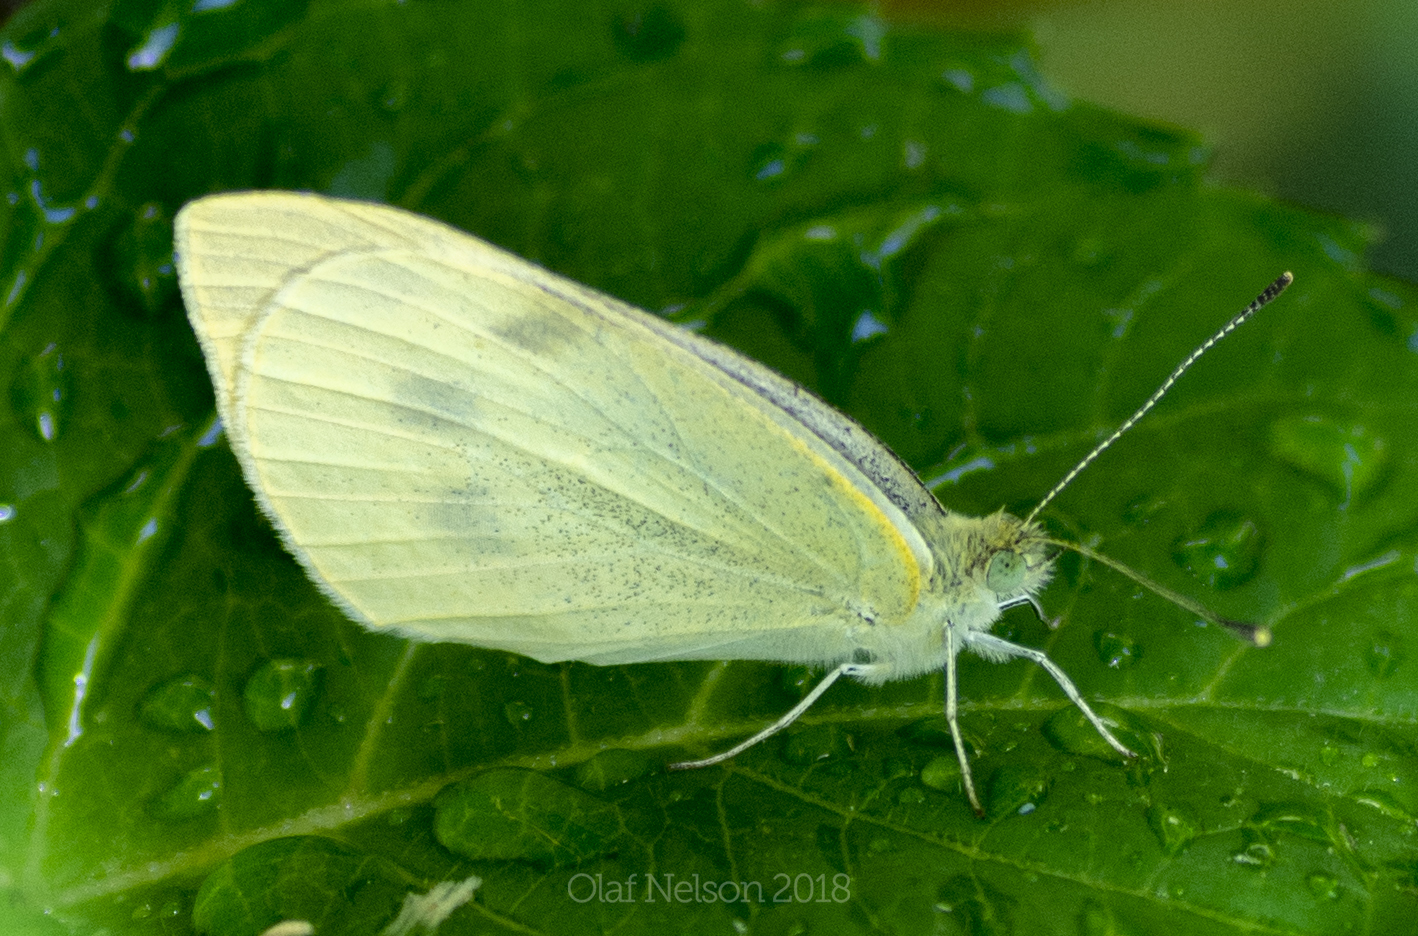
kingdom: Animalia
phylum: Arthropoda
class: Insecta
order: Lepidoptera
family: Pieridae
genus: Pieris
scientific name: Pieris rapae
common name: Small white
